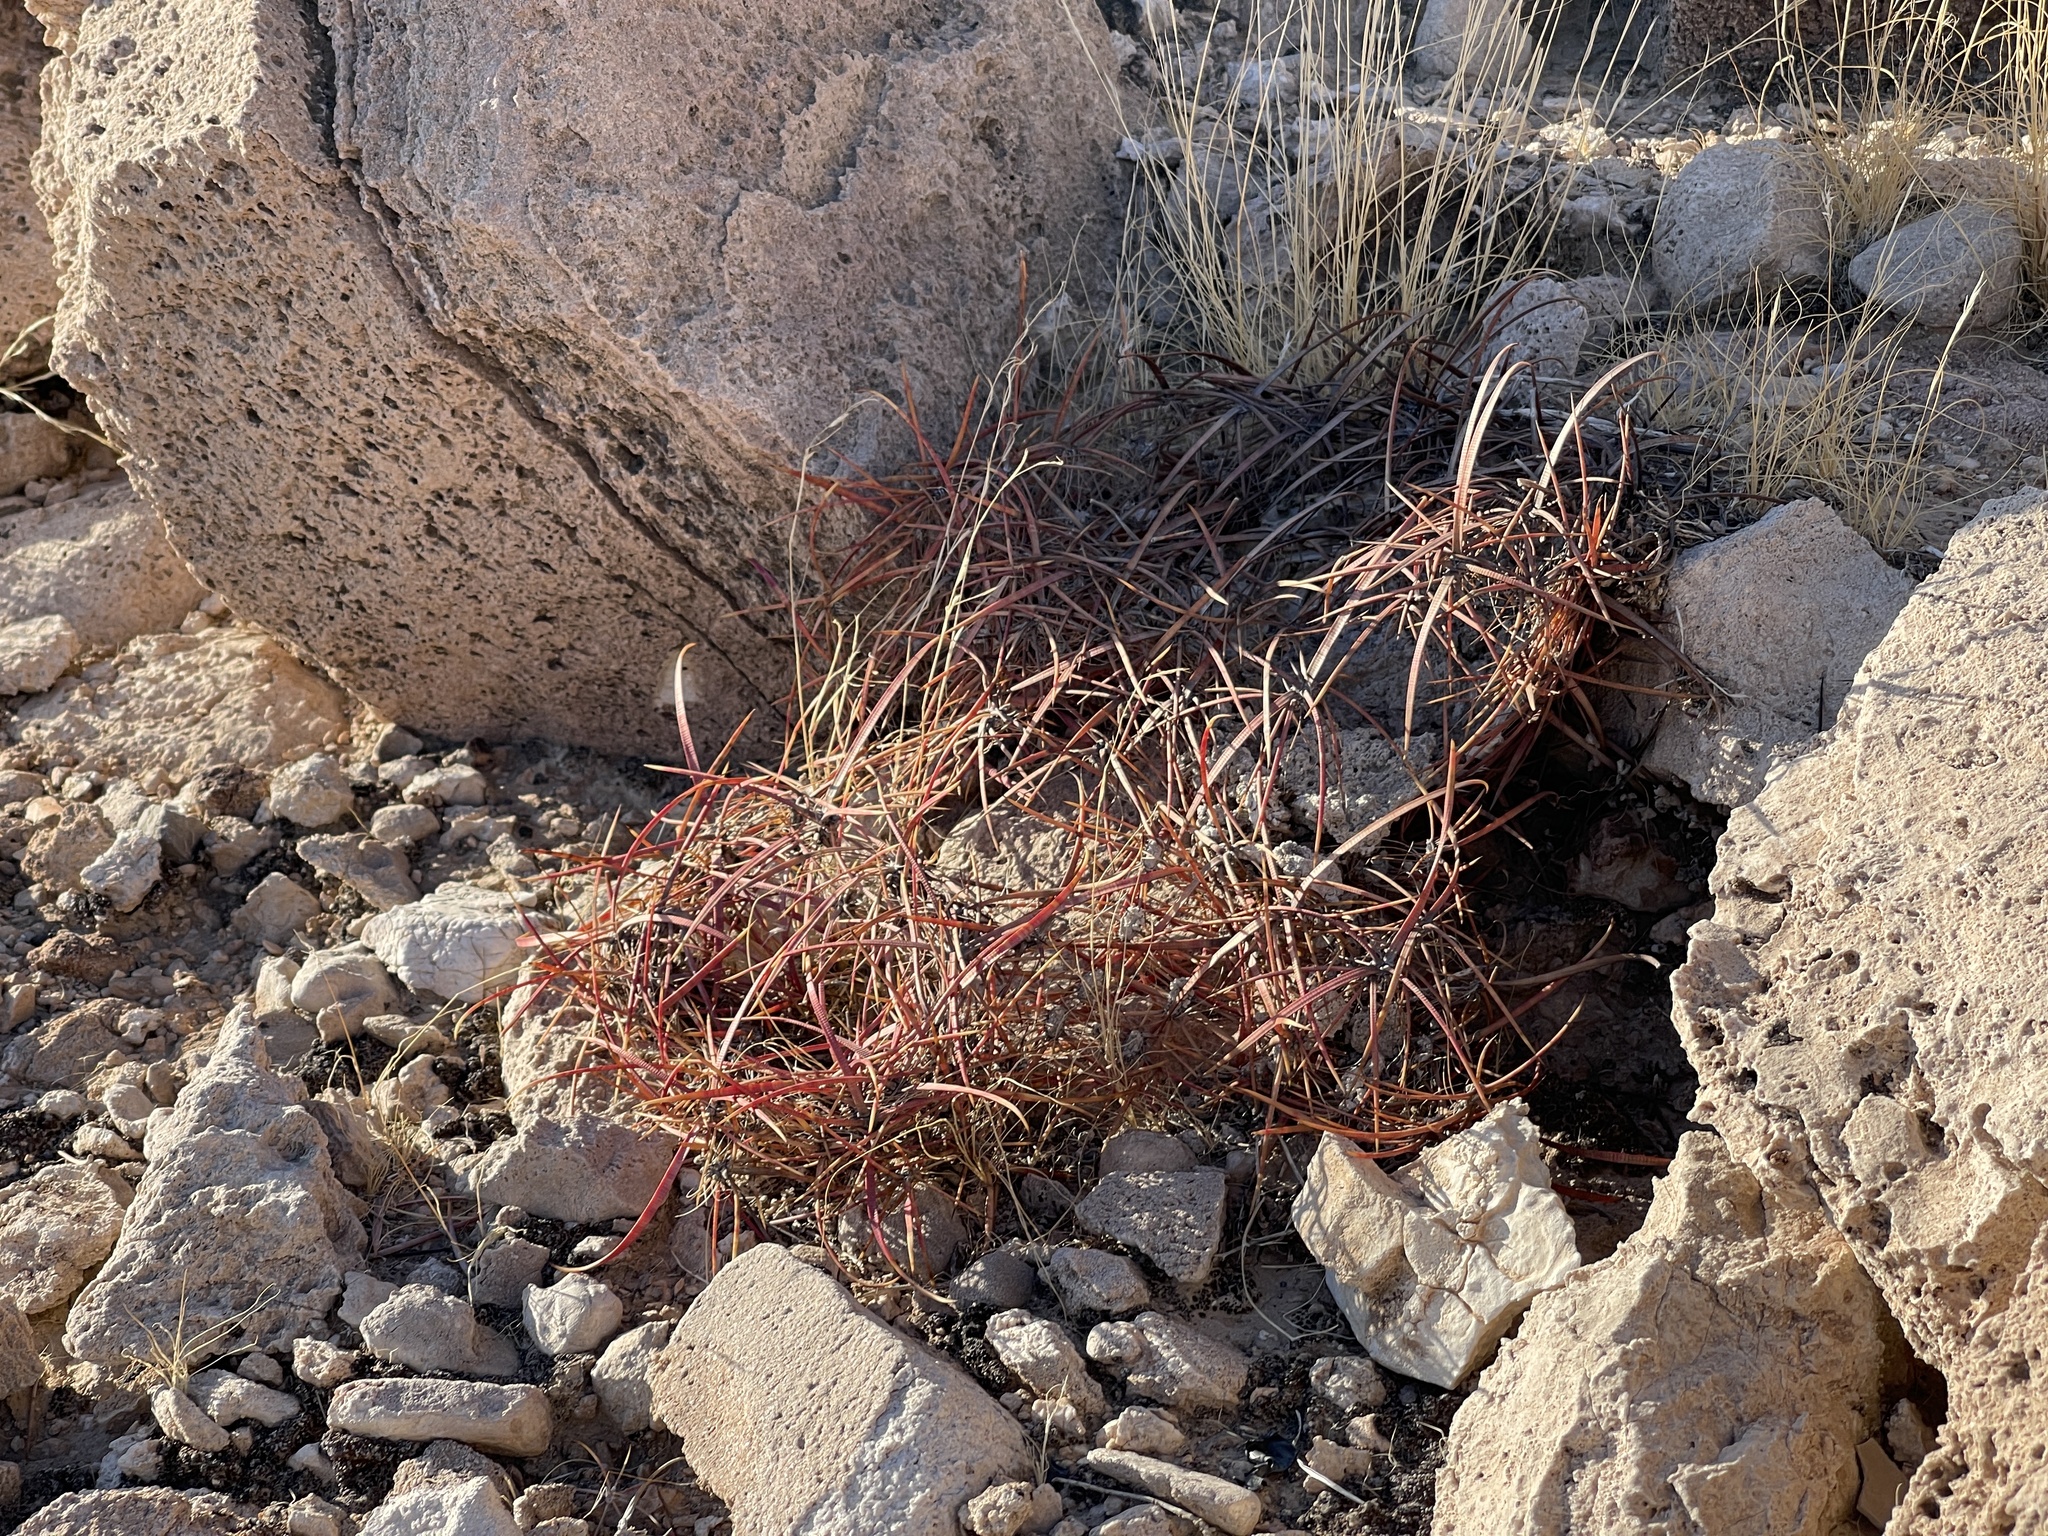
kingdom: Plantae
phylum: Tracheophyta
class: Magnoliopsida
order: Caryophyllales
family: Cactaceae
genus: Ferocactus
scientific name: Ferocactus cylindraceus
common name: California barrel cactus
